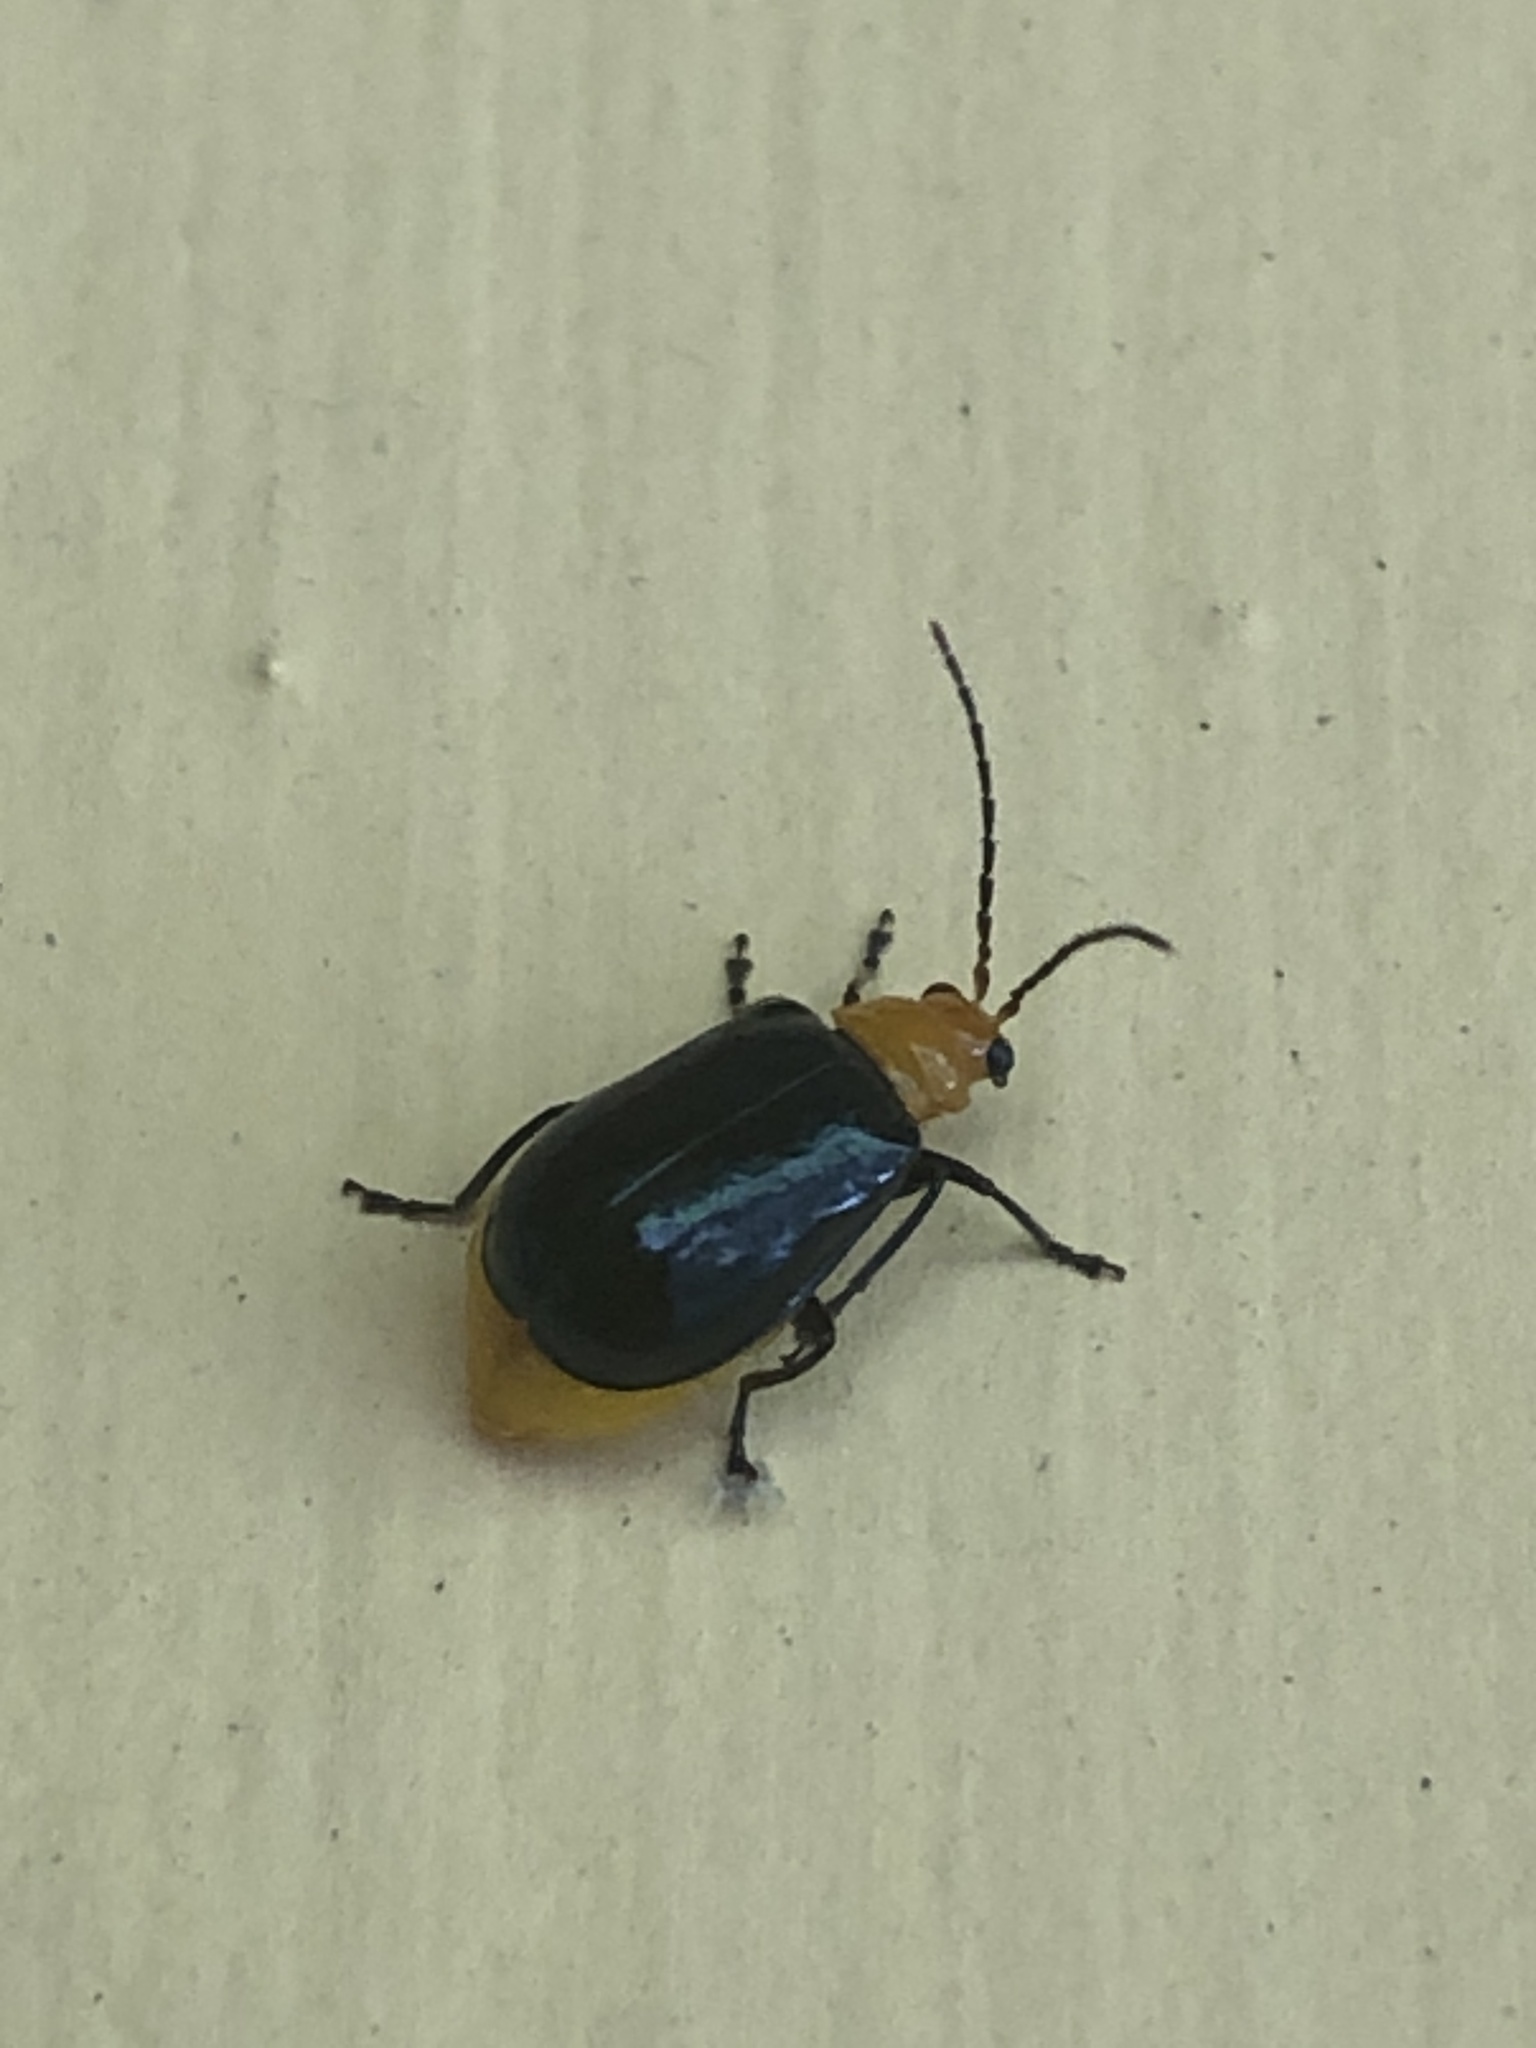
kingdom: Animalia
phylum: Arthropoda
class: Insecta
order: Coleoptera
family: Chrysomelidae
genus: Aulacophora
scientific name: Aulacophora nigripennis
